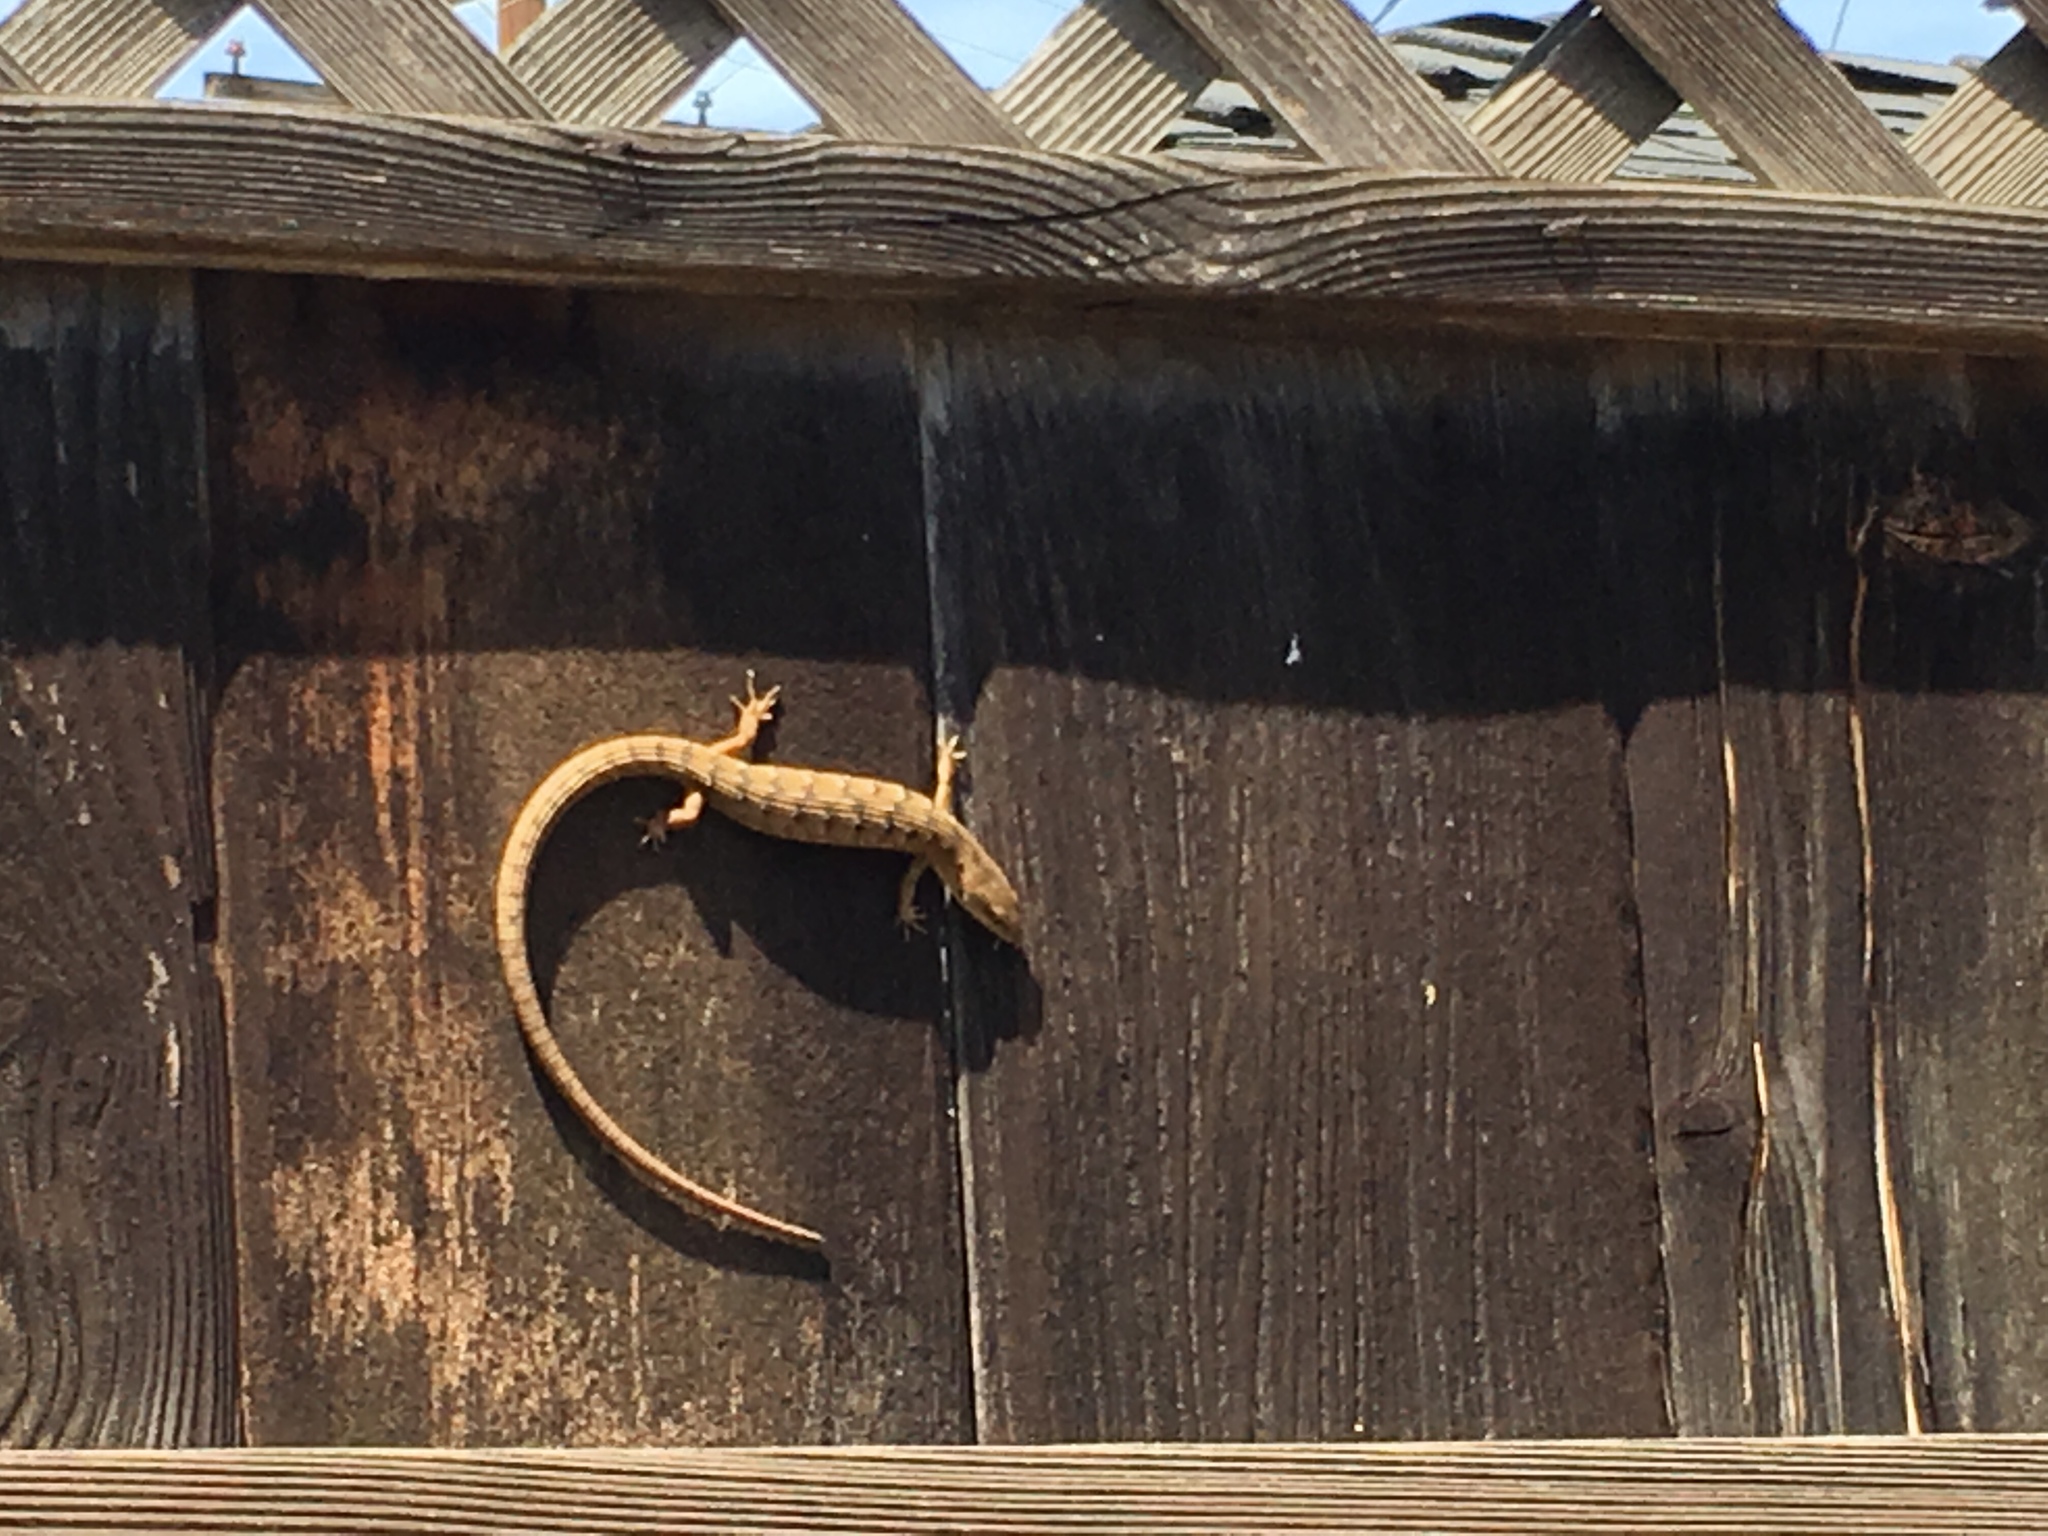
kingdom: Animalia
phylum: Chordata
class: Squamata
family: Anguidae
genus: Elgaria
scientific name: Elgaria multicarinata
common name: Southern alligator lizard
